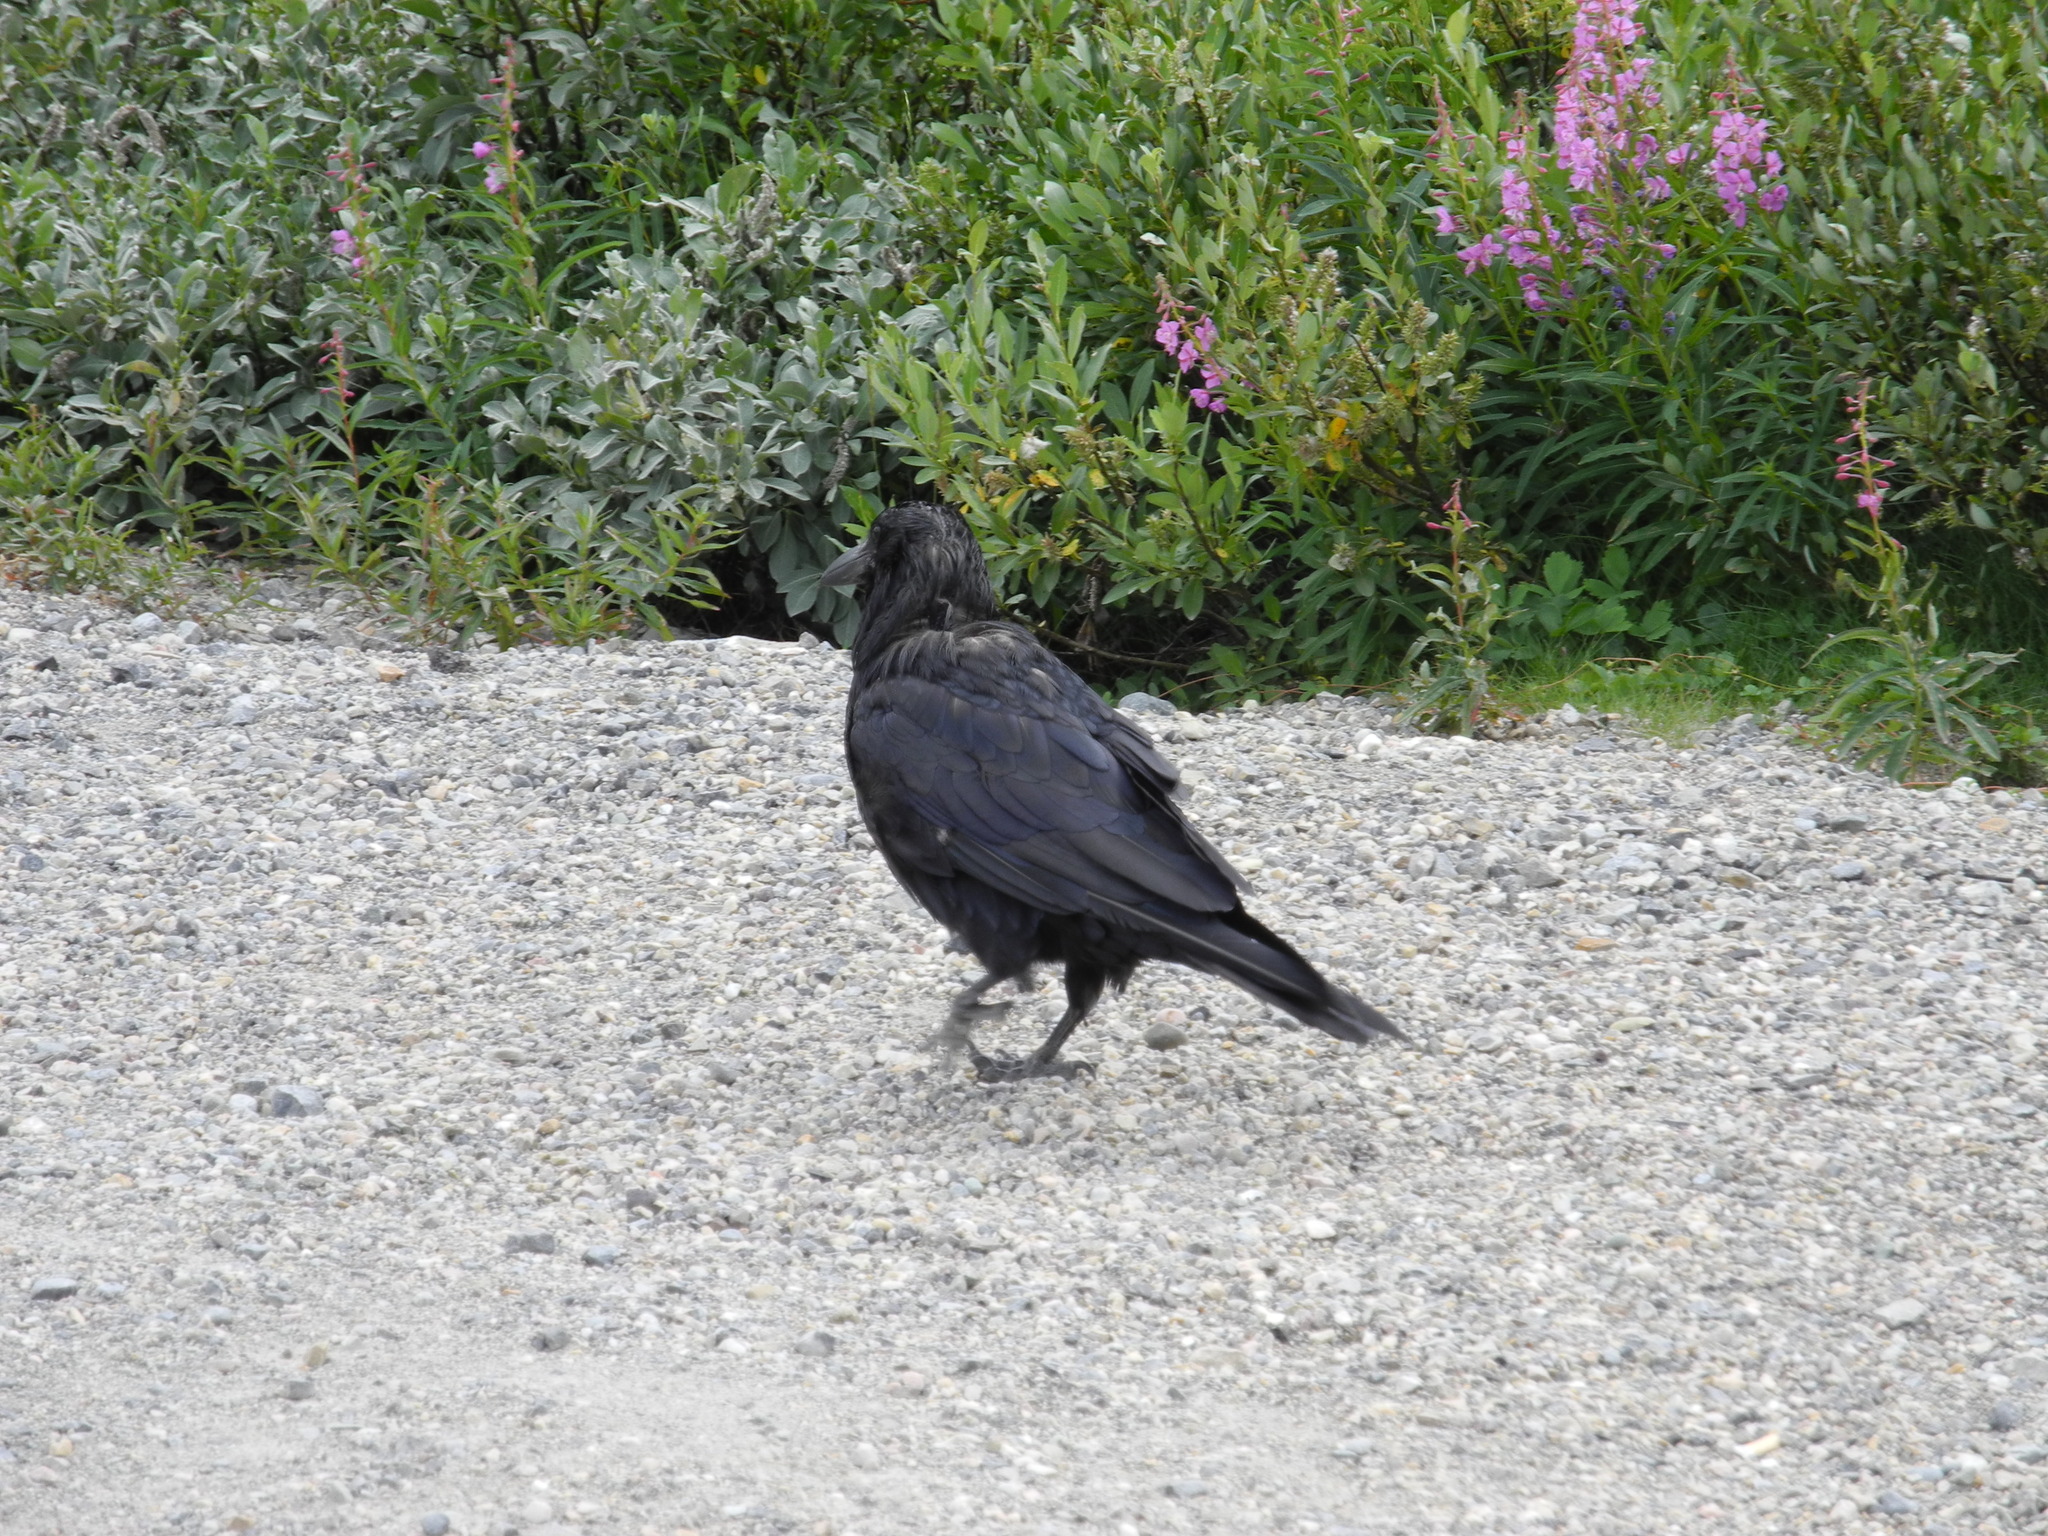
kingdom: Animalia
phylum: Chordata
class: Aves
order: Passeriformes
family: Corvidae
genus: Corvus
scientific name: Corvus corax
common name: Common raven
